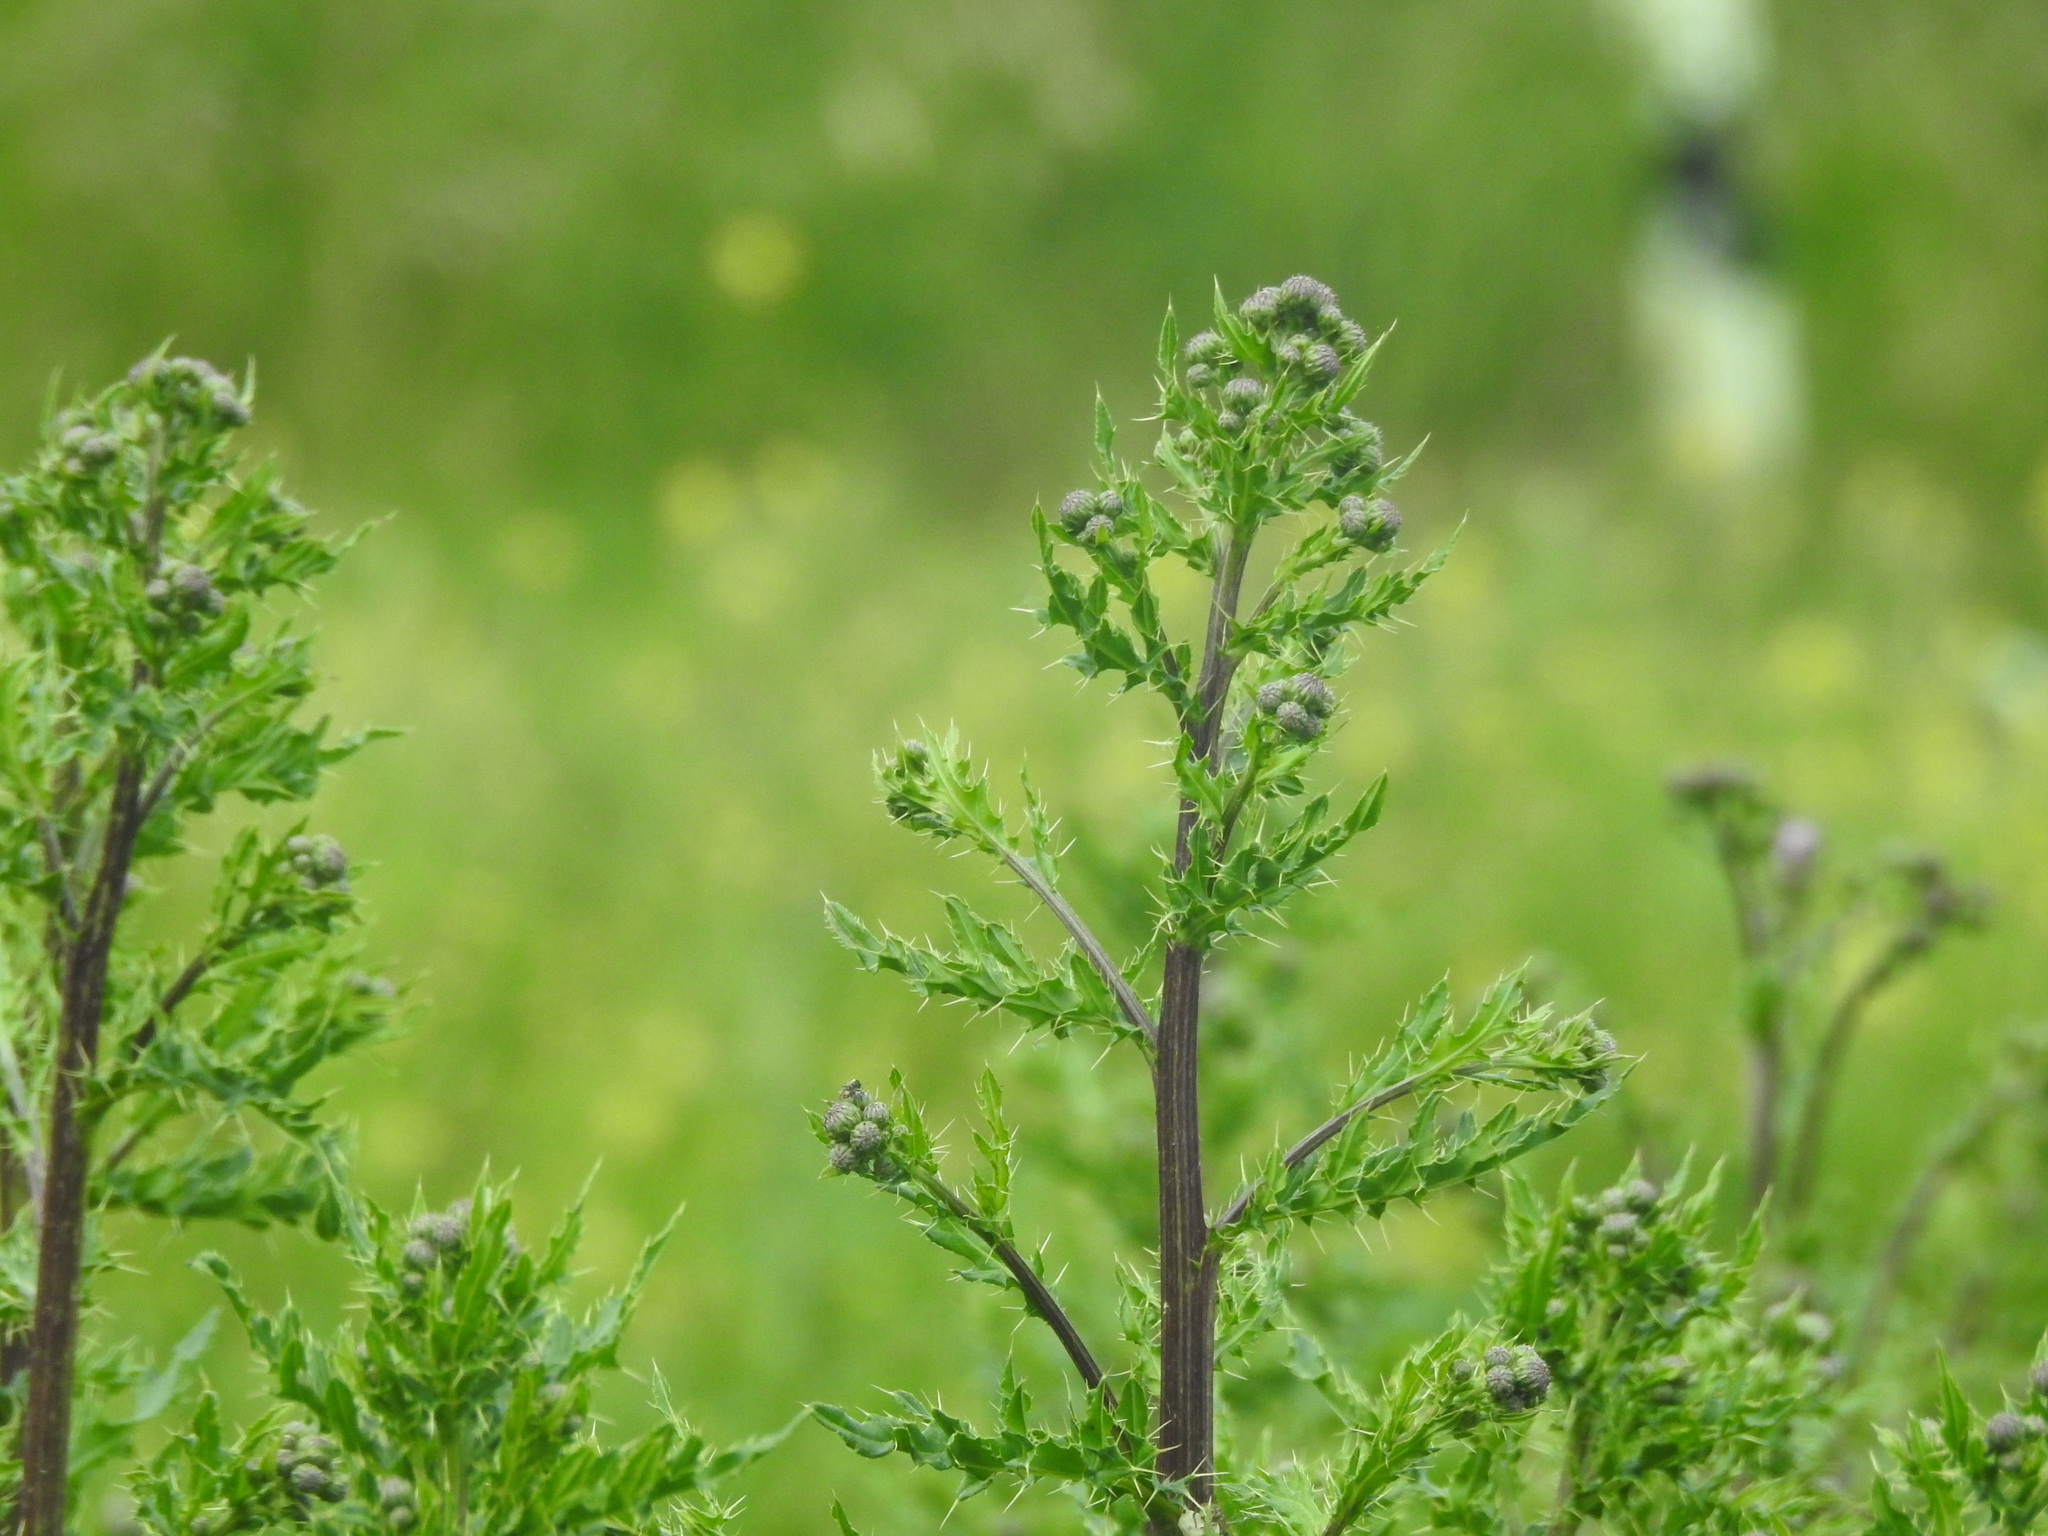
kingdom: Plantae
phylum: Tracheophyta
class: Magnoliopsida
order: Asterales
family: Asteraceae
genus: Cirsium
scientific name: Cirsium arvense
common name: Creeping thistle
